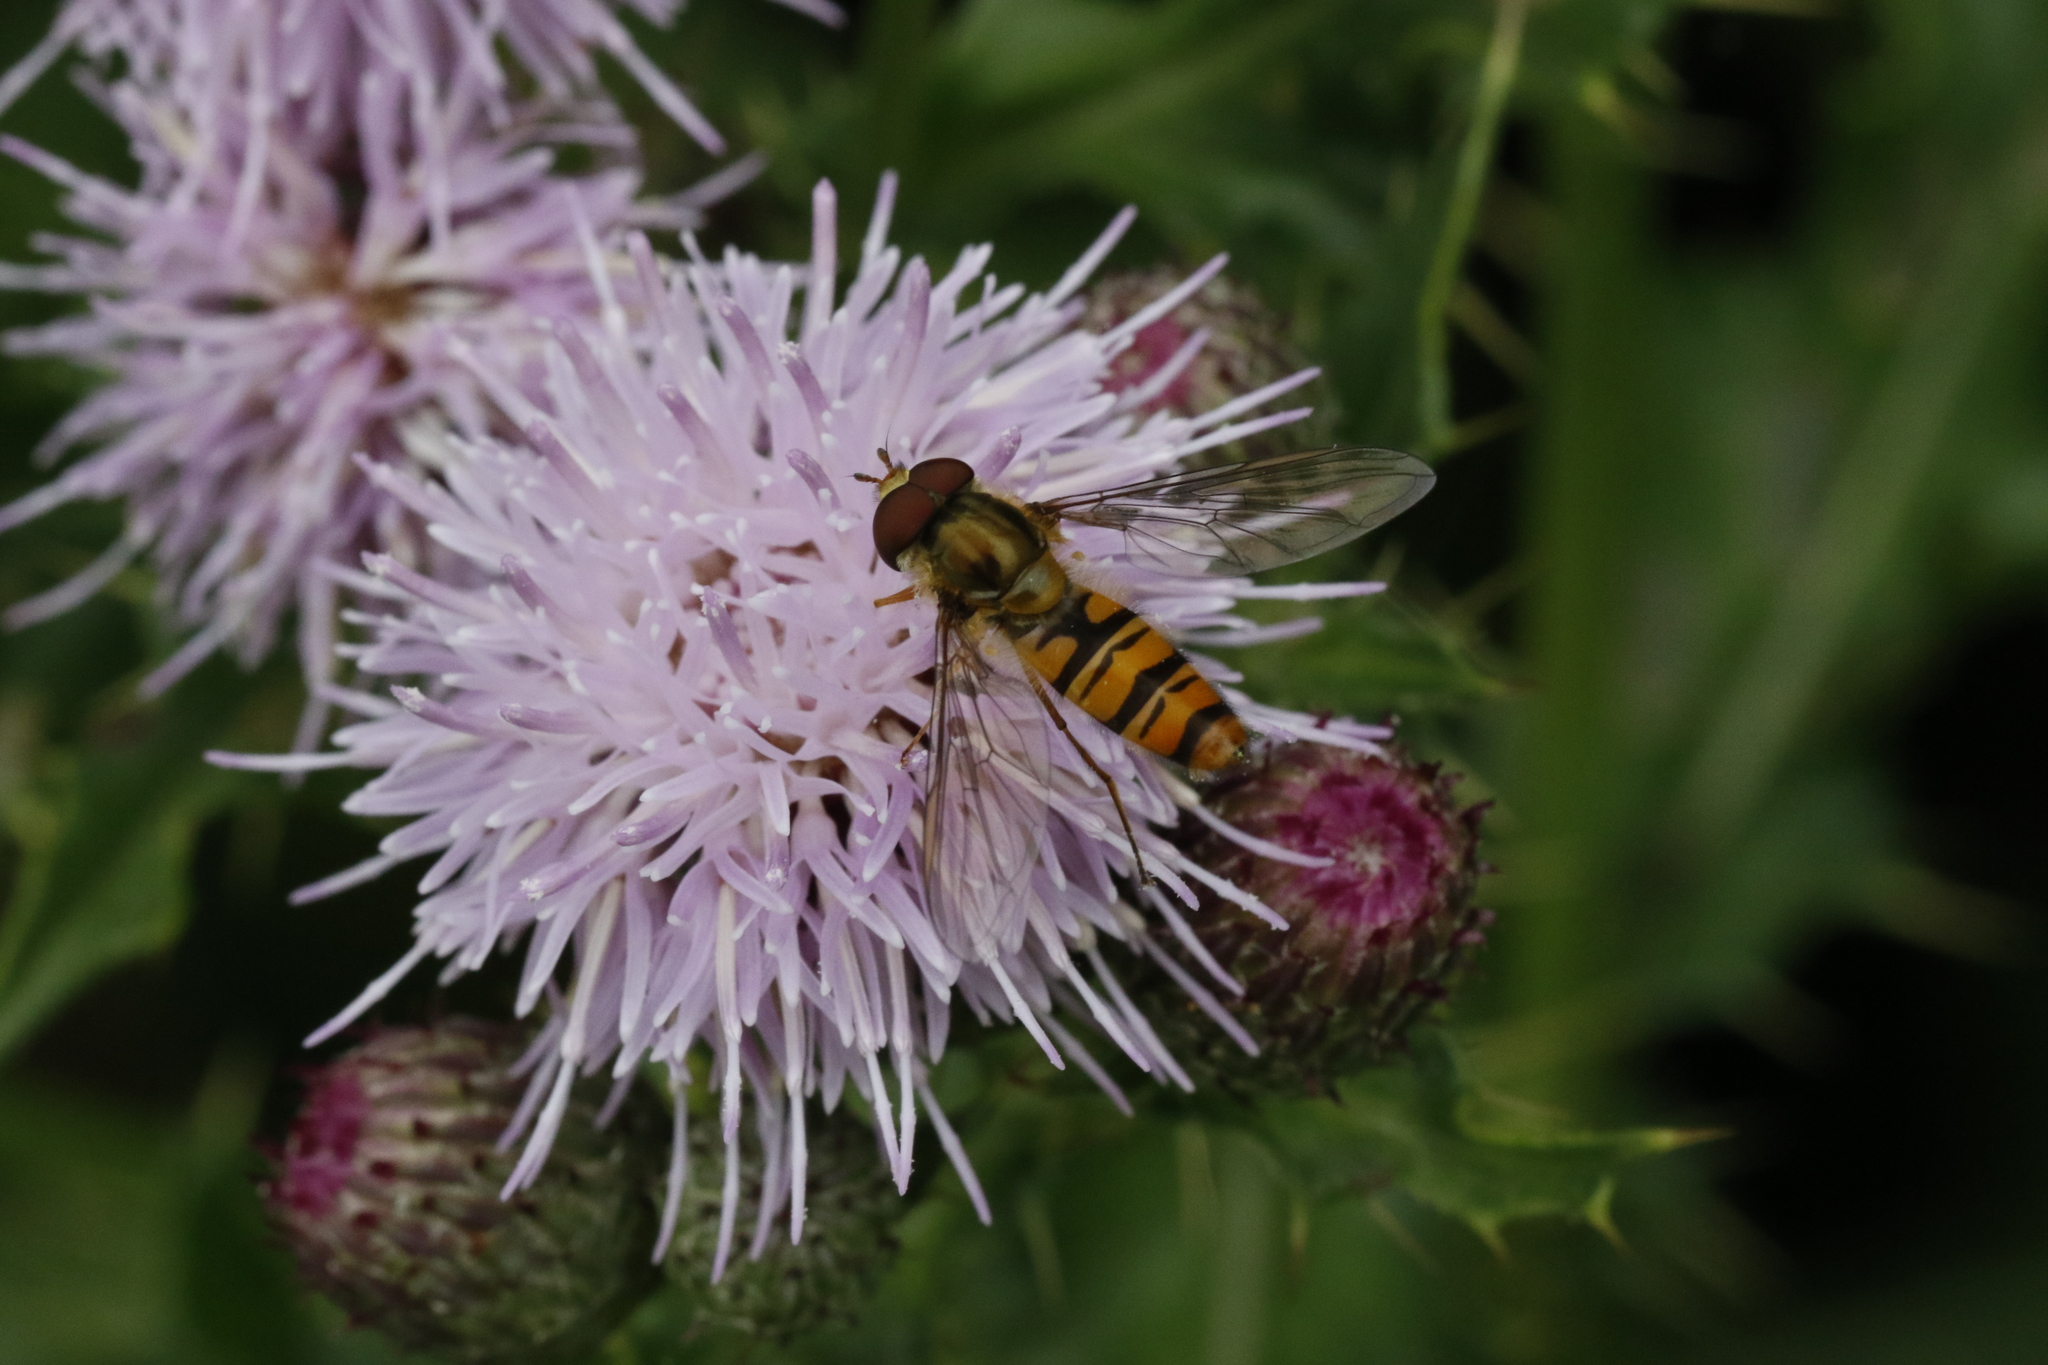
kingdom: Animalia
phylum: Arthropoda
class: Insecta
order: Diptera
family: Syrphidae
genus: Episyrphus
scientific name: Episyrphus balteatus
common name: Marmalade hoverfly
